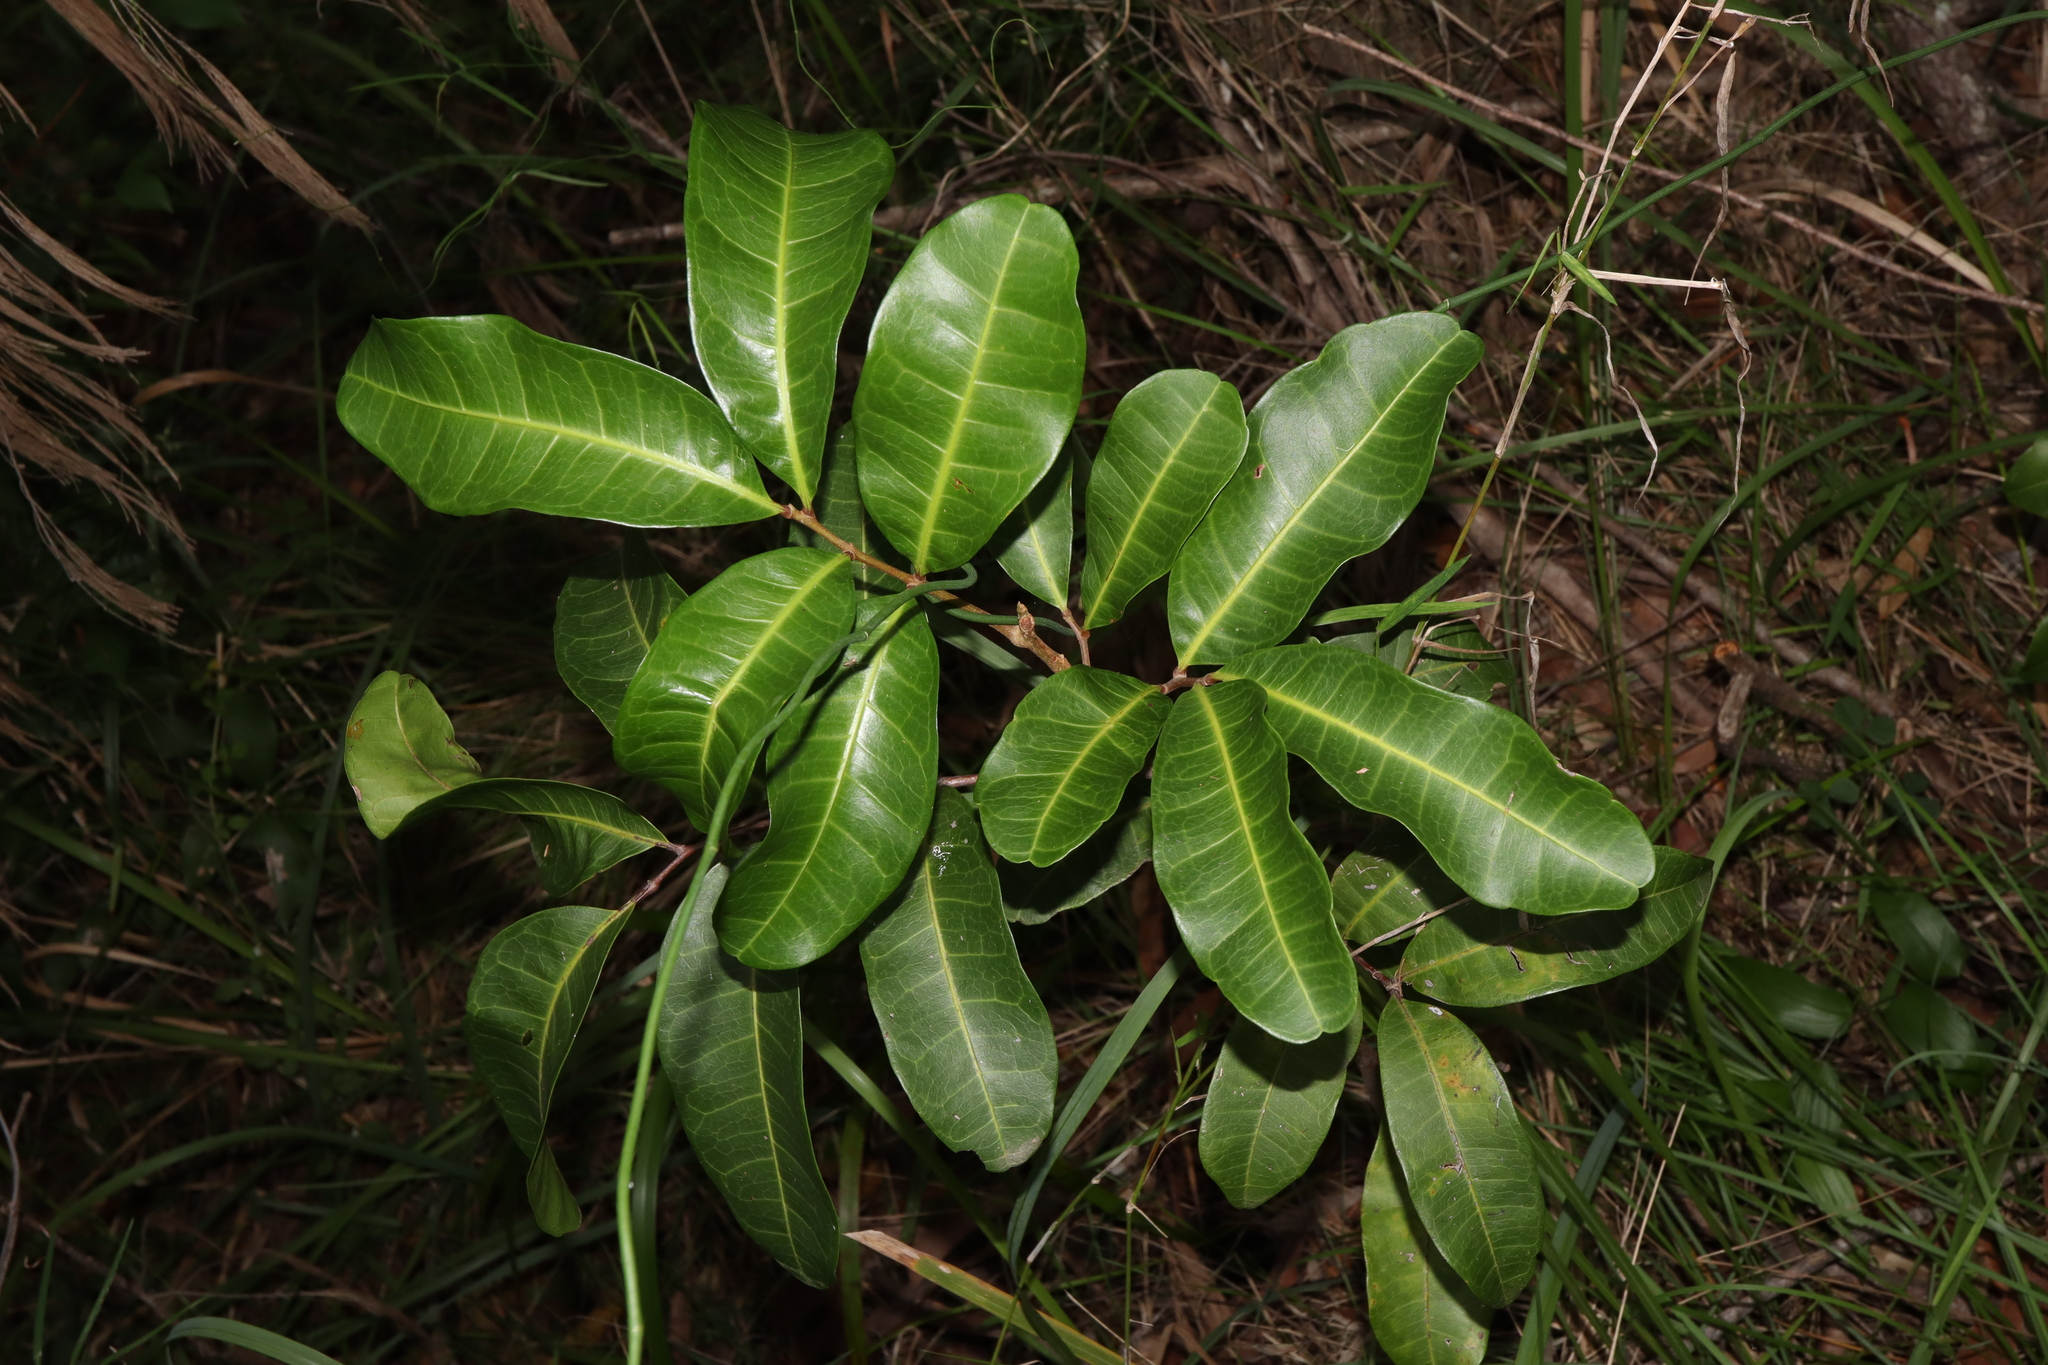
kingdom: Plantae
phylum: Tracheophyta
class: Magnoliopsida
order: Sapindales
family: Sapindaceae
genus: Cupaniopsis
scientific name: Cupaniopsis anacardioides
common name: Carrotwood
